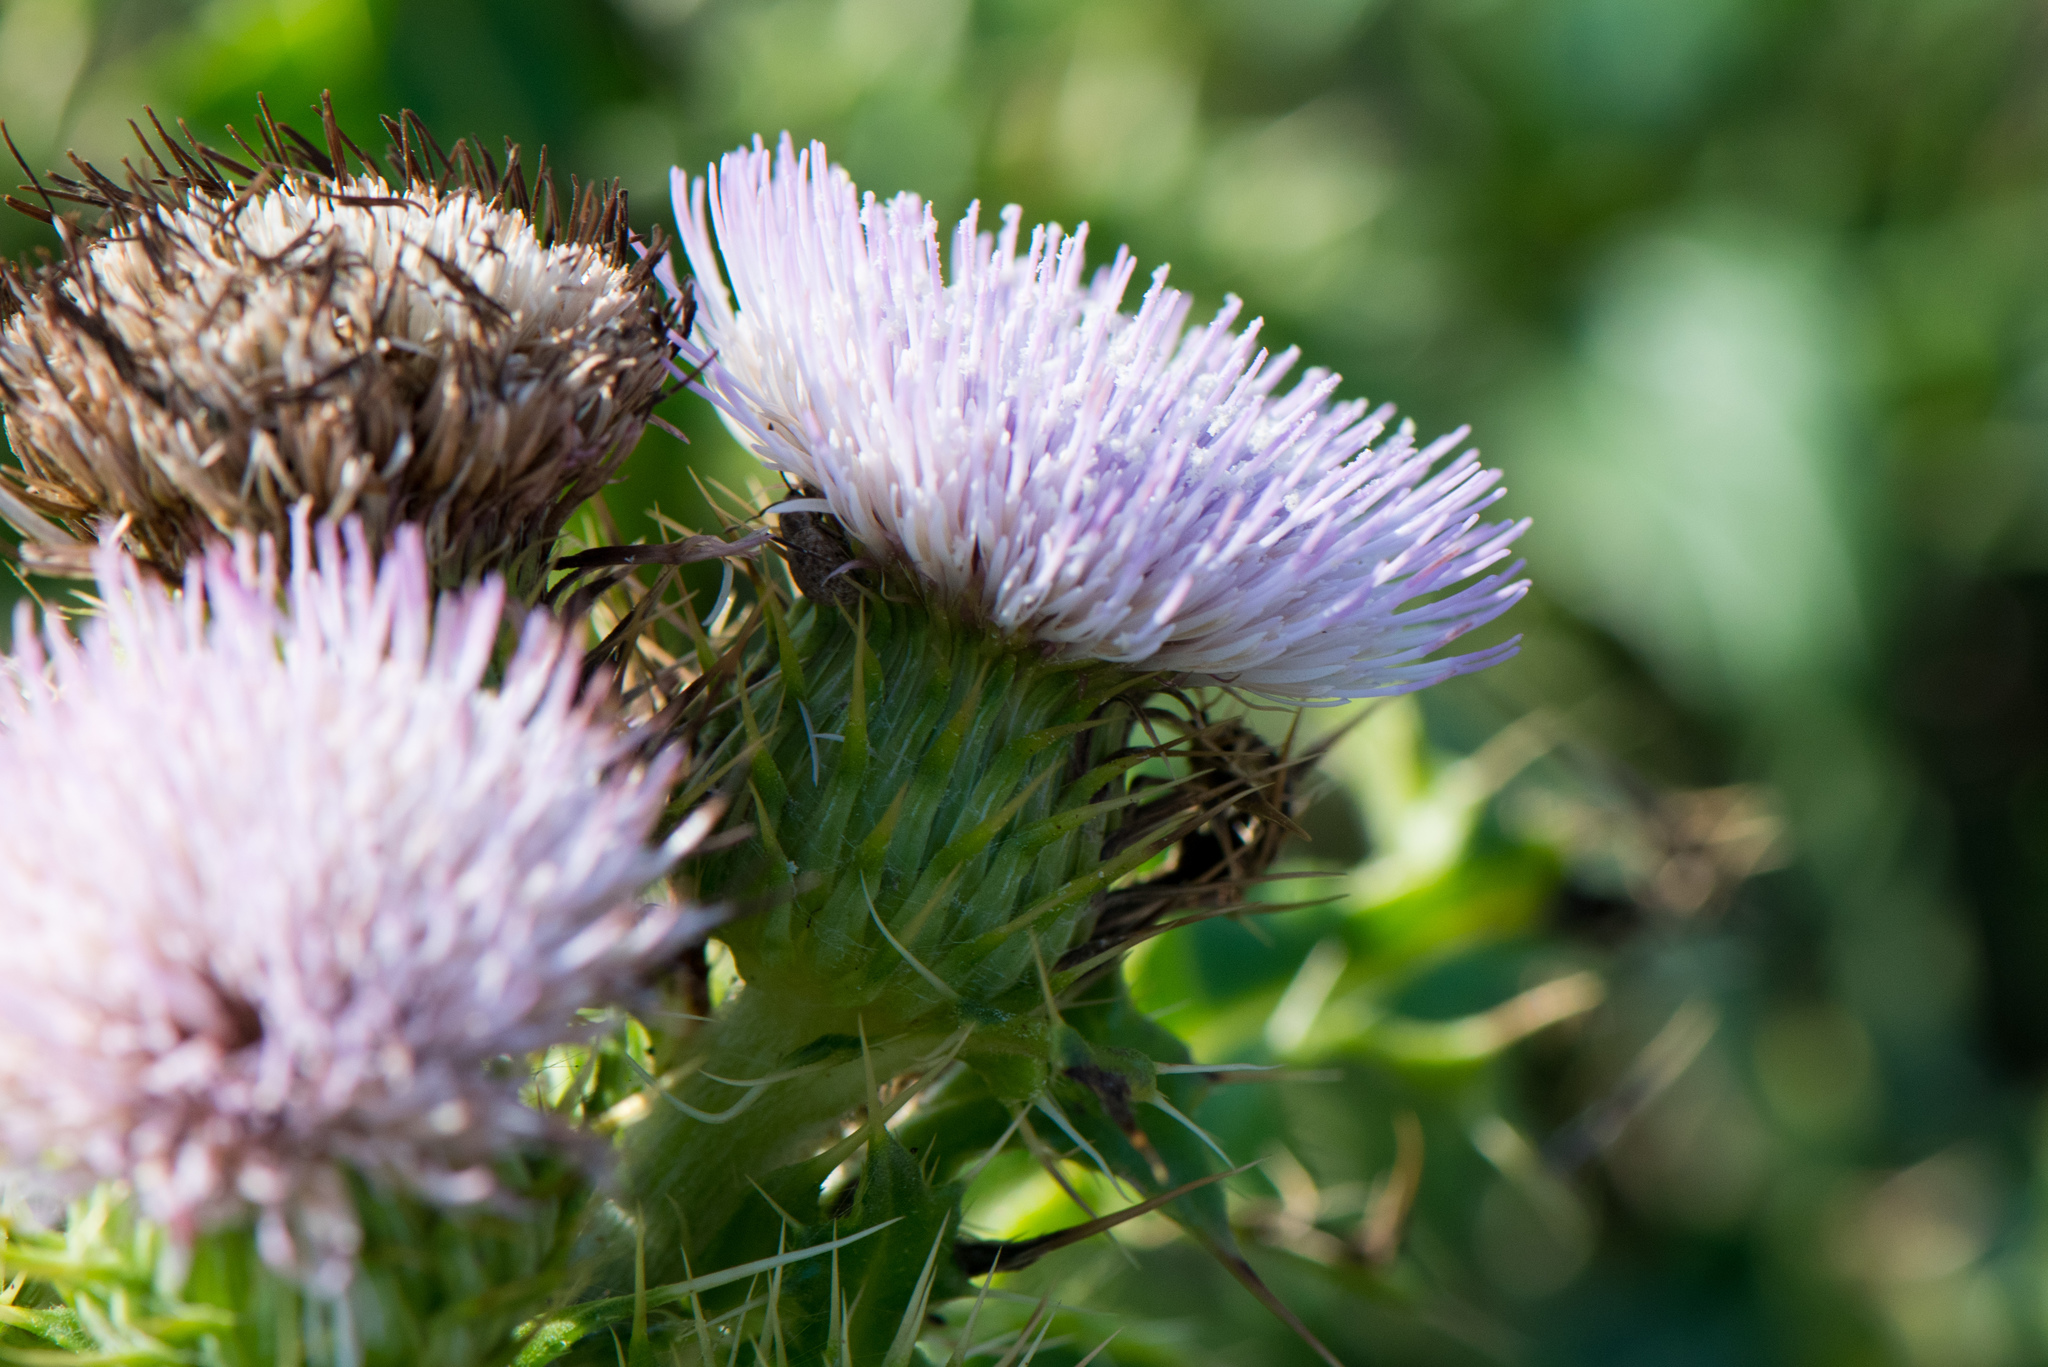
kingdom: Plantae
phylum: Tracheophyta
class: Magnoliopsida
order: Asterales
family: Asteraceae
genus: Cirsium
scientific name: Cirsium brevicaule
